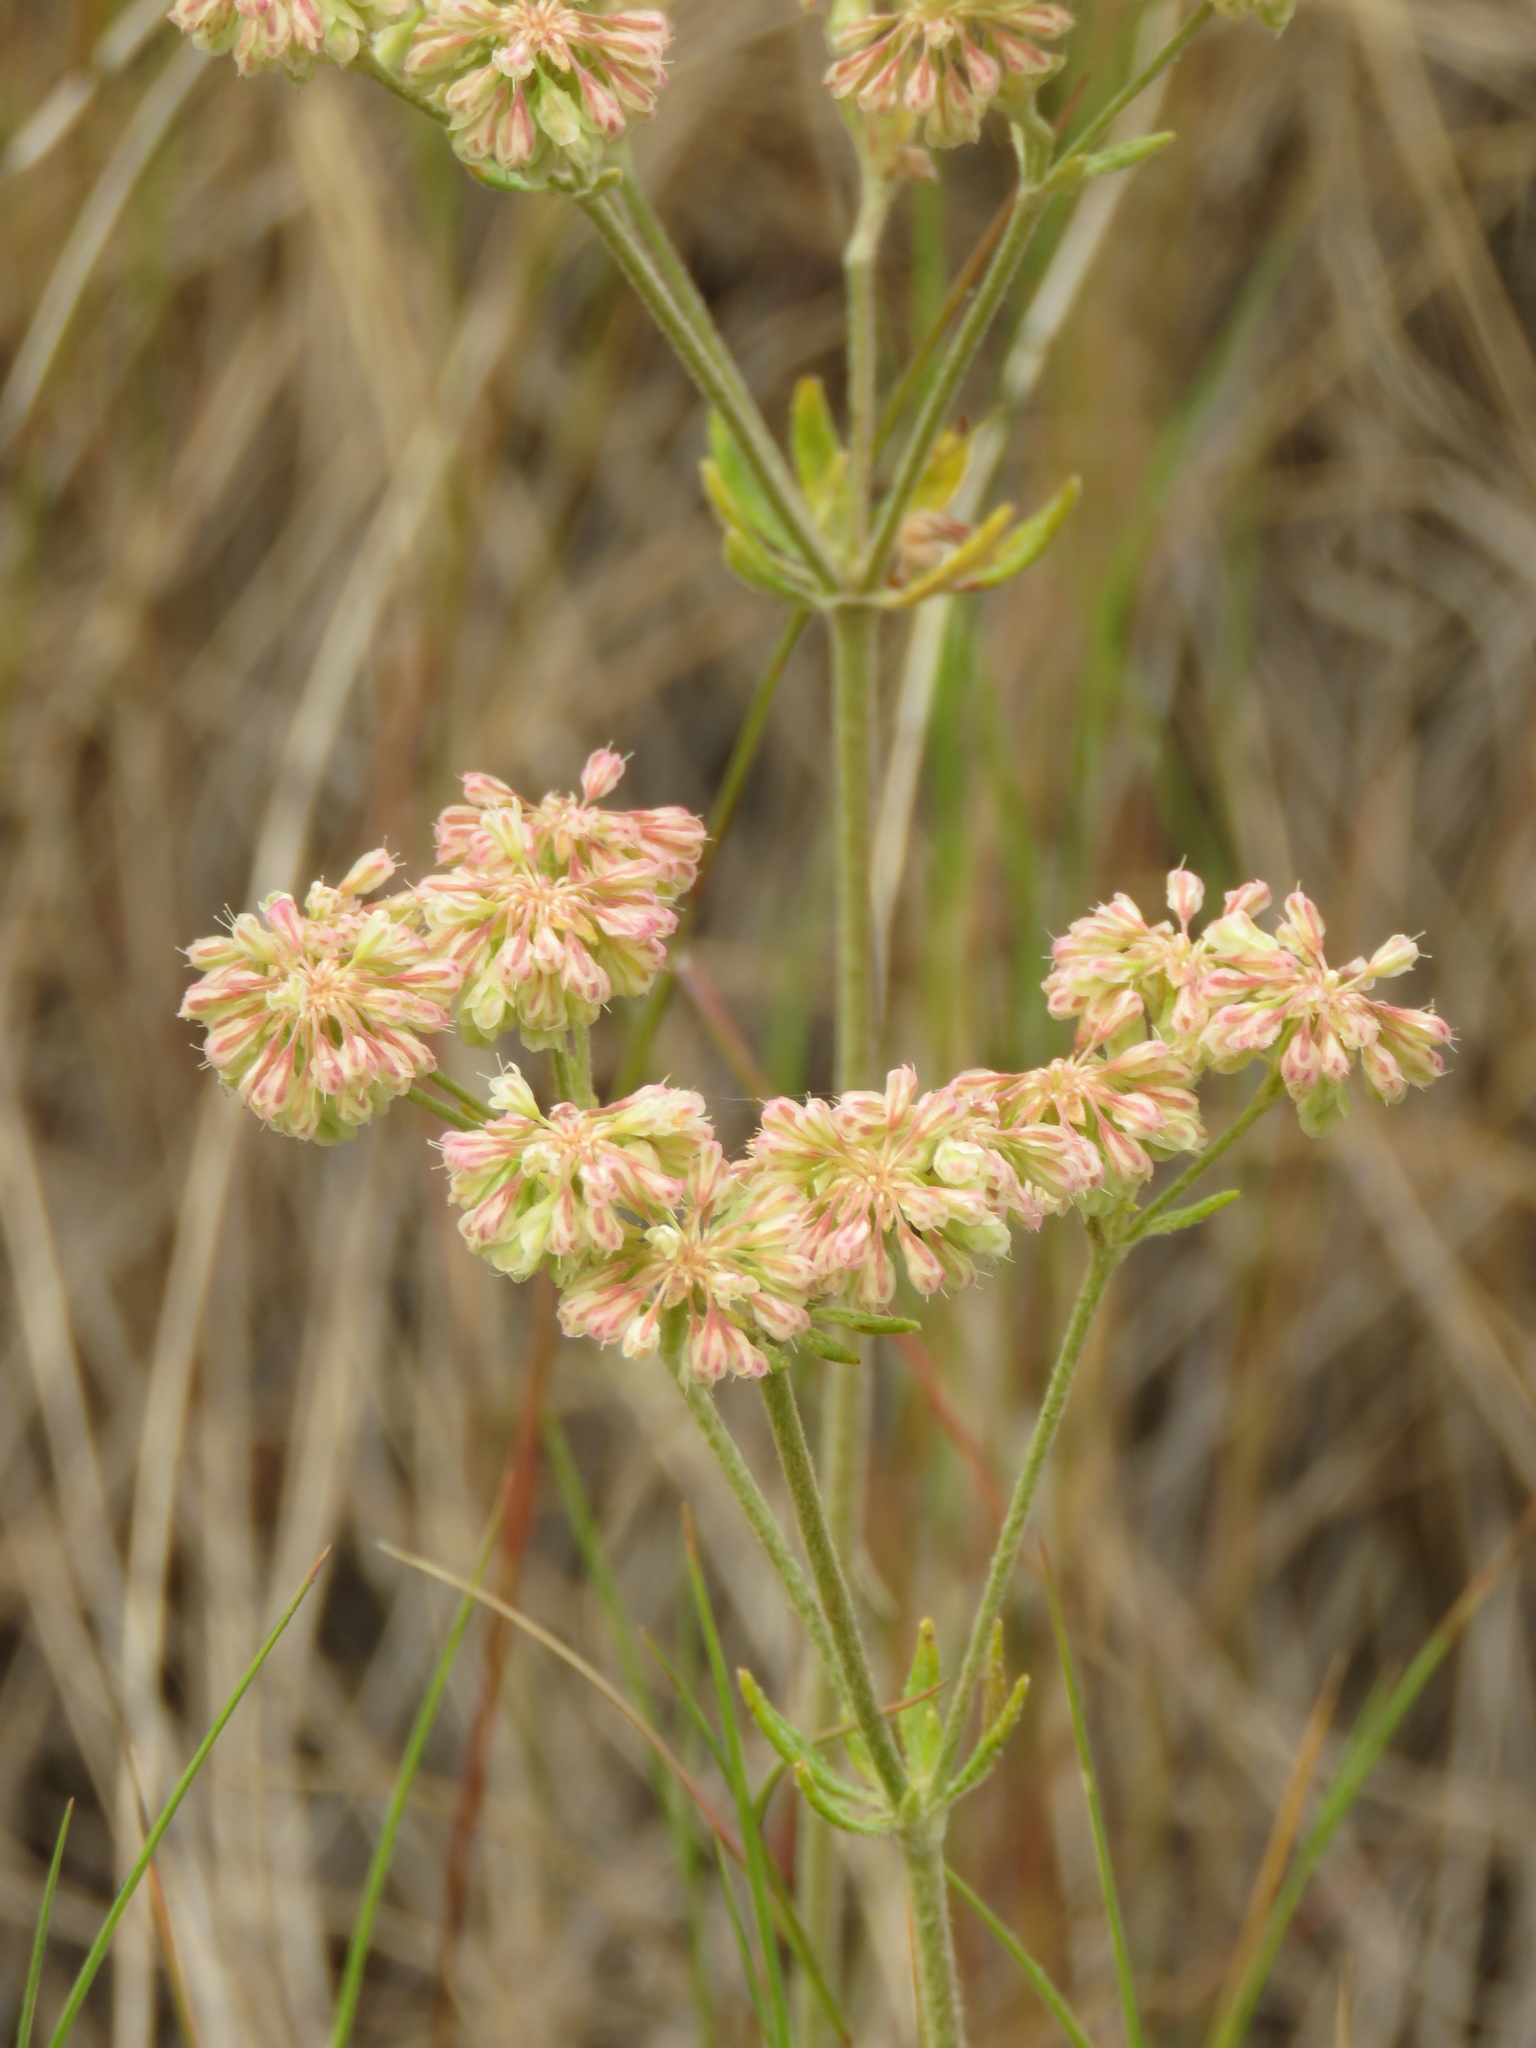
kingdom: Plantae
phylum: Tracheophyta
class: Magnoliopsida
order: Caryophyllales
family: Polygonaceae
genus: Eriogonum
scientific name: Eriogonum heracleoides
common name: Wyeth's buckwheat
